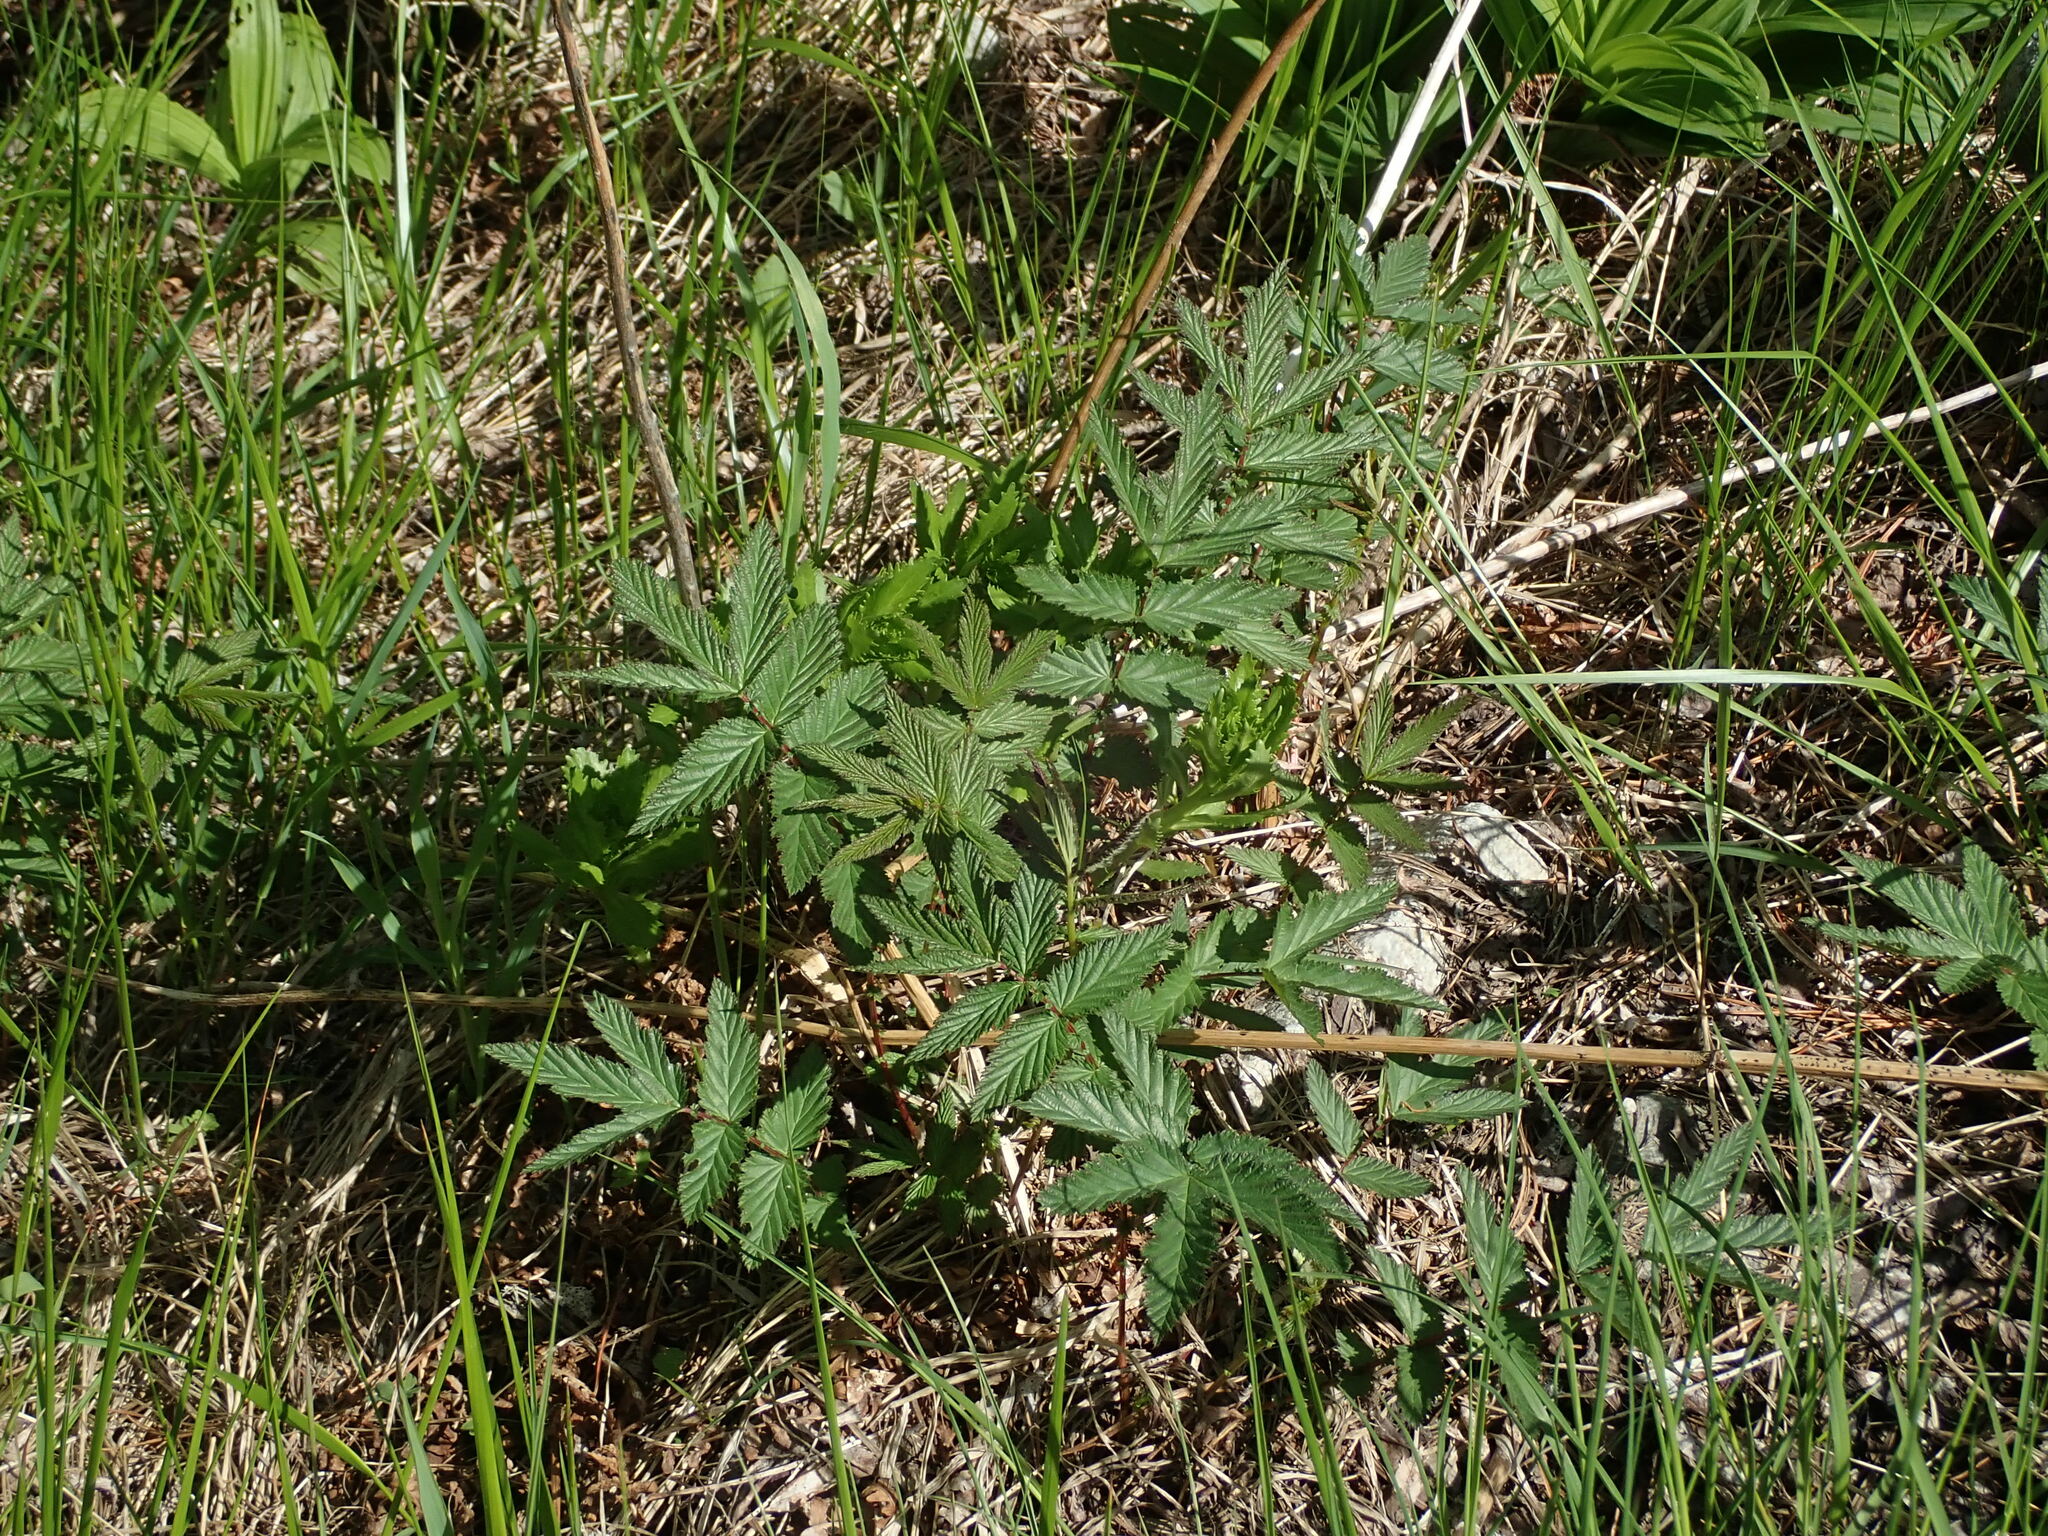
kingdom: Plantae
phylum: Tracheophyta
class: Magnoliopsida
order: Rosales
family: Rosaceae
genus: Filipendula
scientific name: Filipendula ulmaria
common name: Meadowsweet
